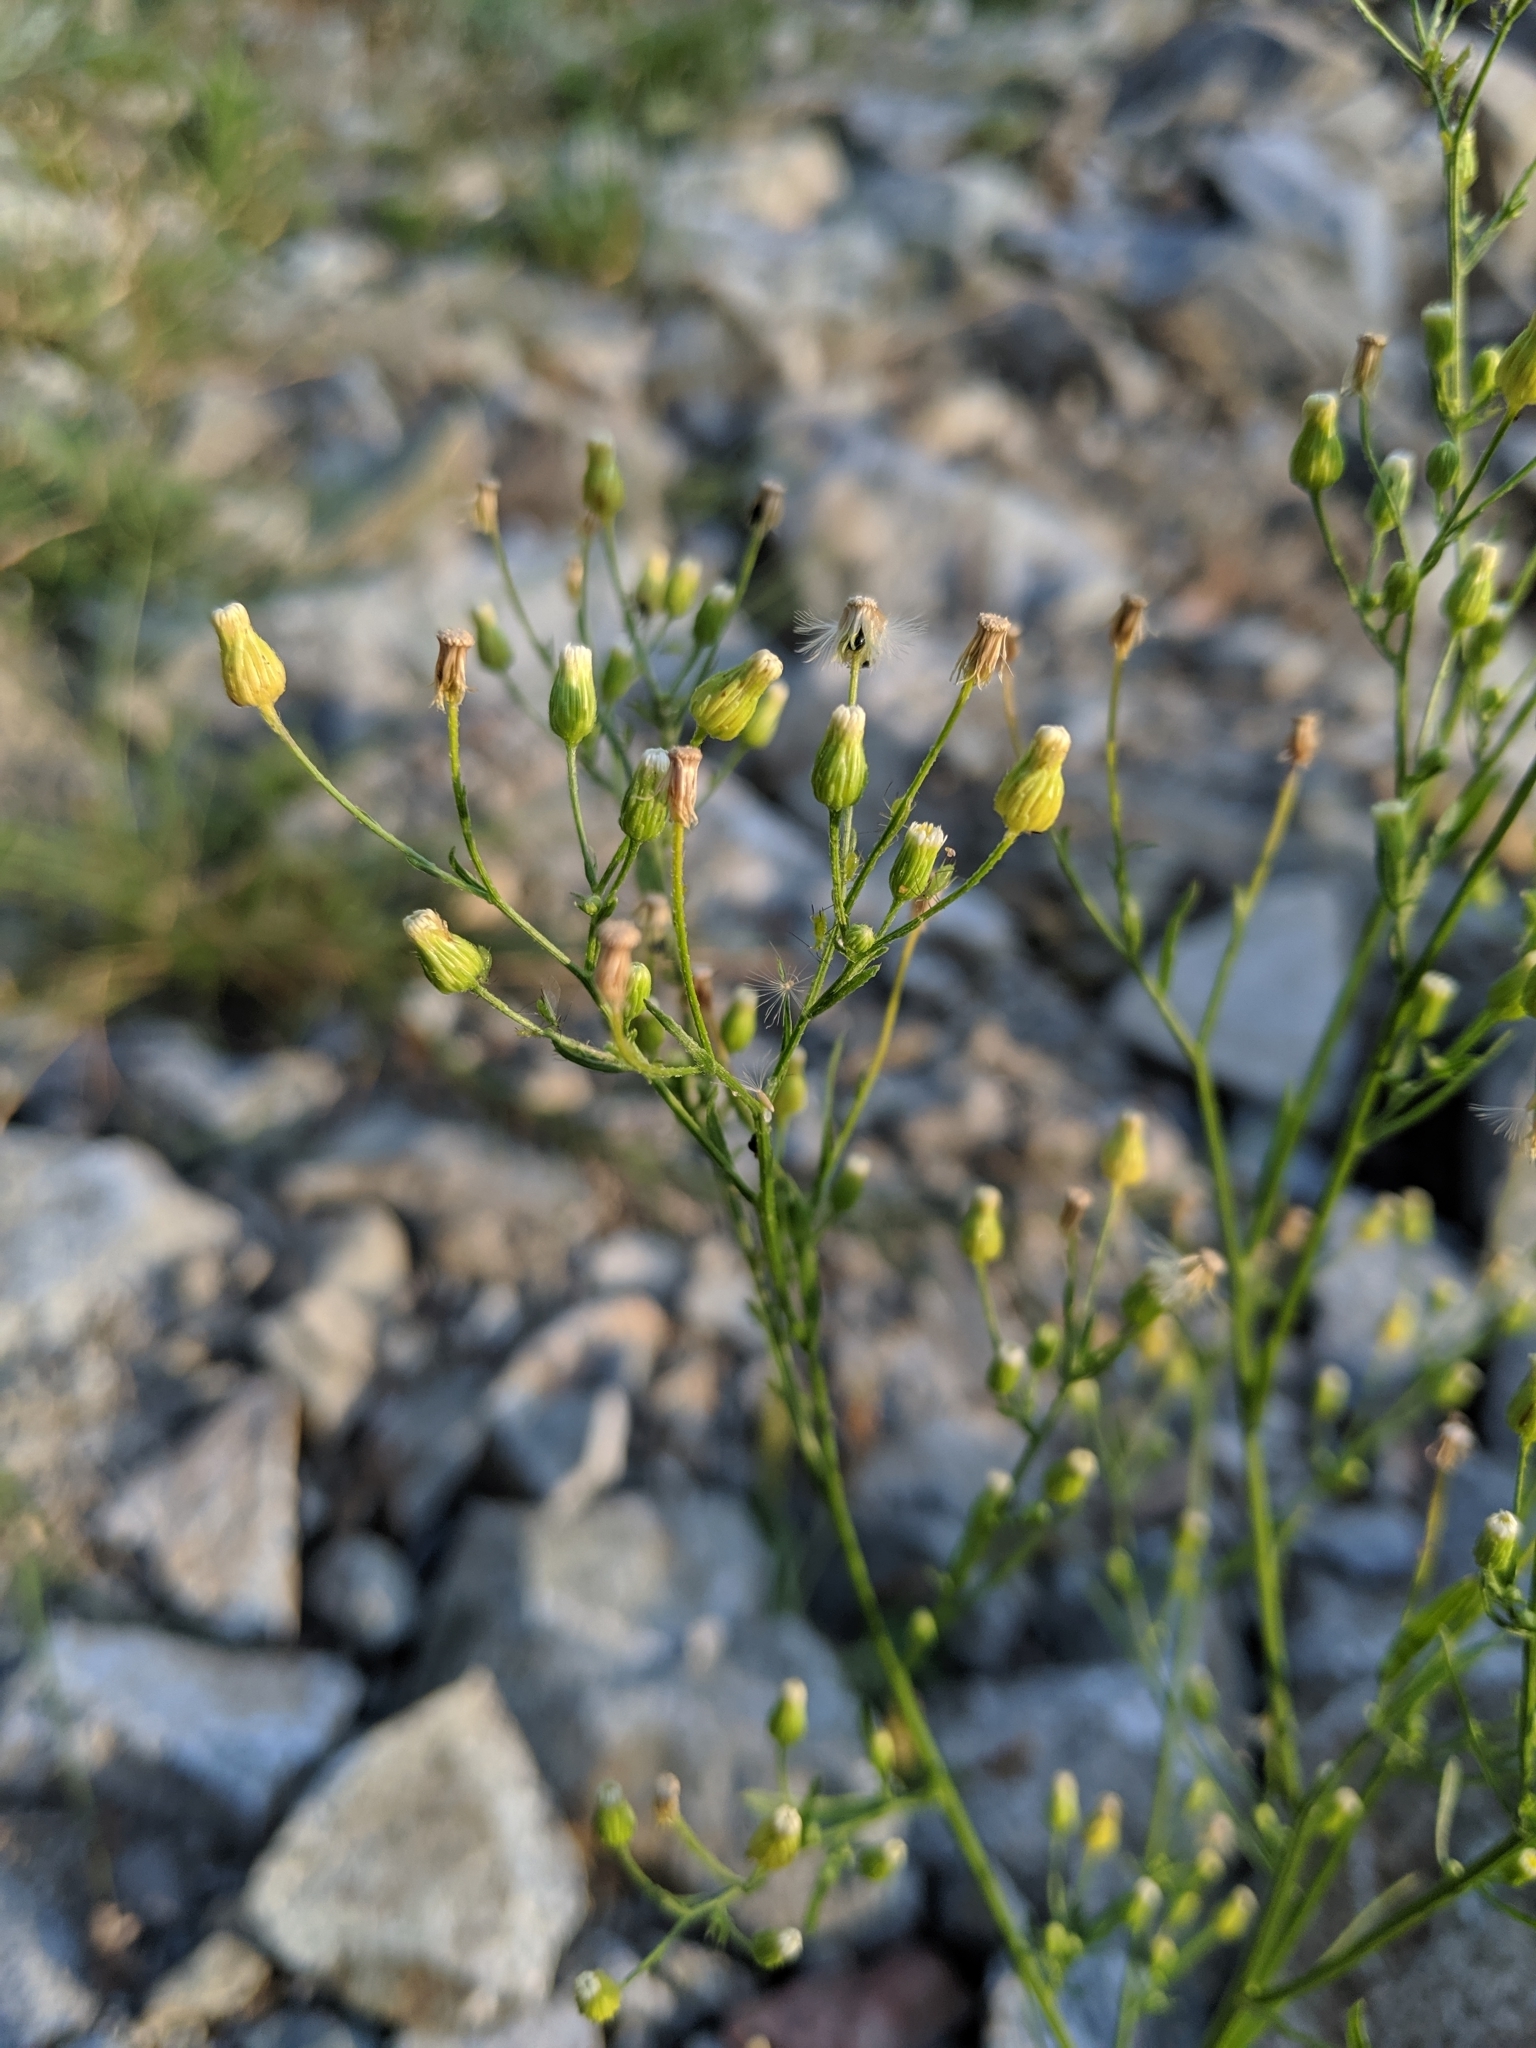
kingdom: Plantae
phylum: Tracheophyta
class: Magnoliopsida
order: Asterales
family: Asteraceae
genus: Erigeron
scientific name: Erigeron canadensis
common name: Canadian fleabane
